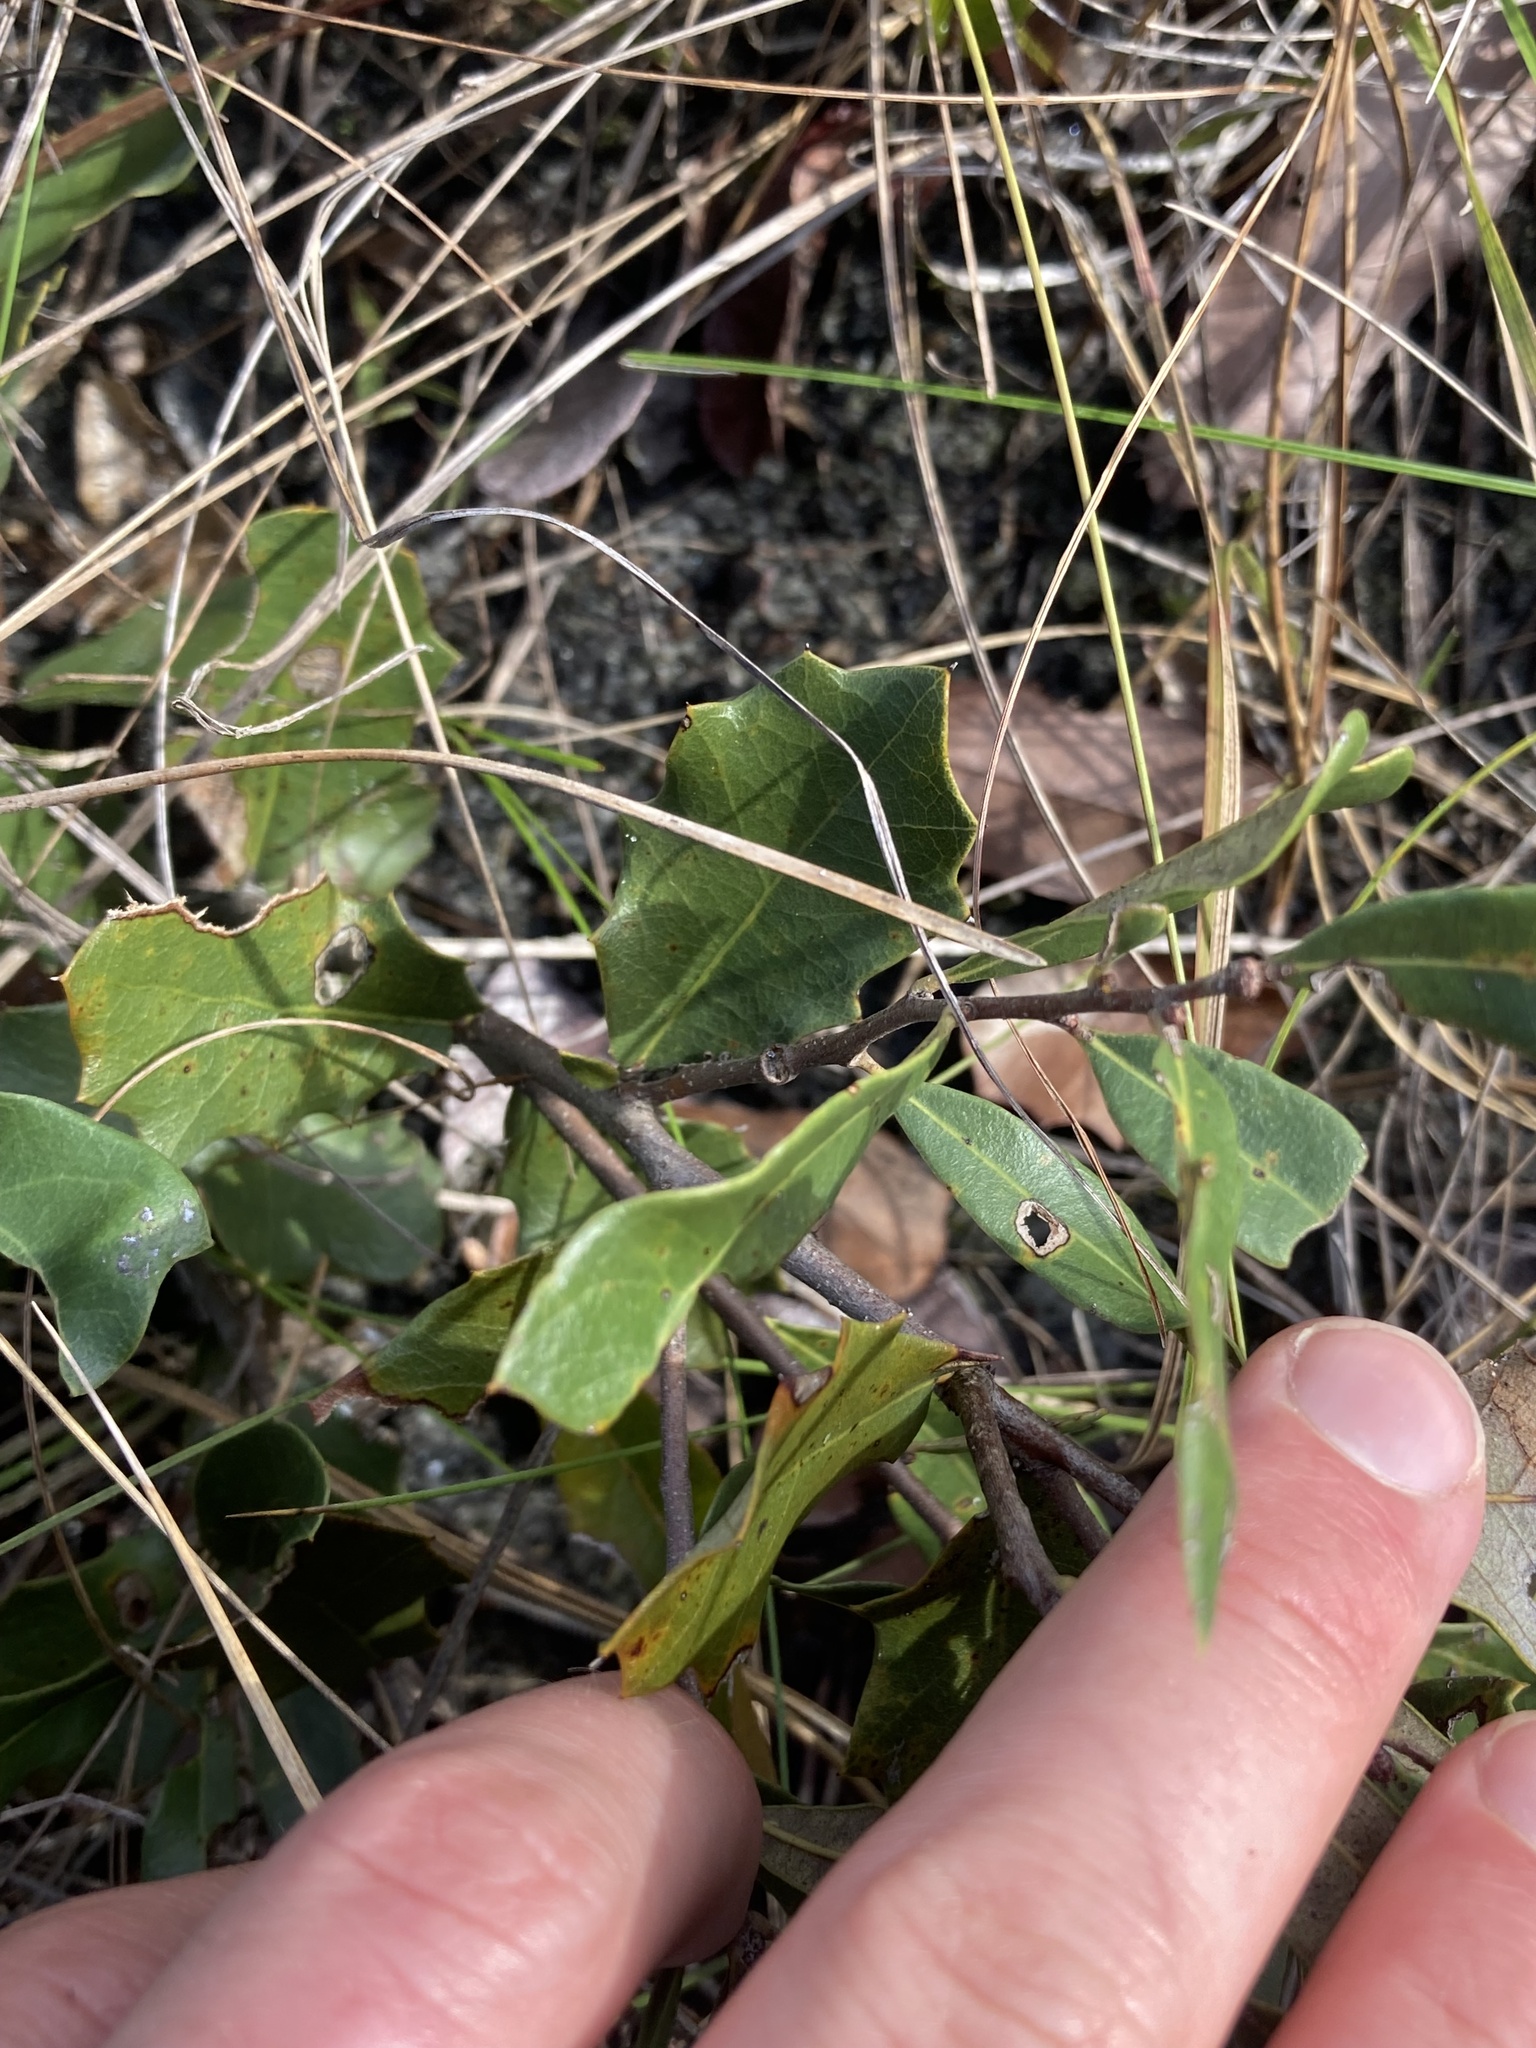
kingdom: Plantae
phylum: Tracheophyta
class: Magnoliopsida
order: Fagales
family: Fagaceae
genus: Quercus
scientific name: Quercus minima
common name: Dwarf live oak
